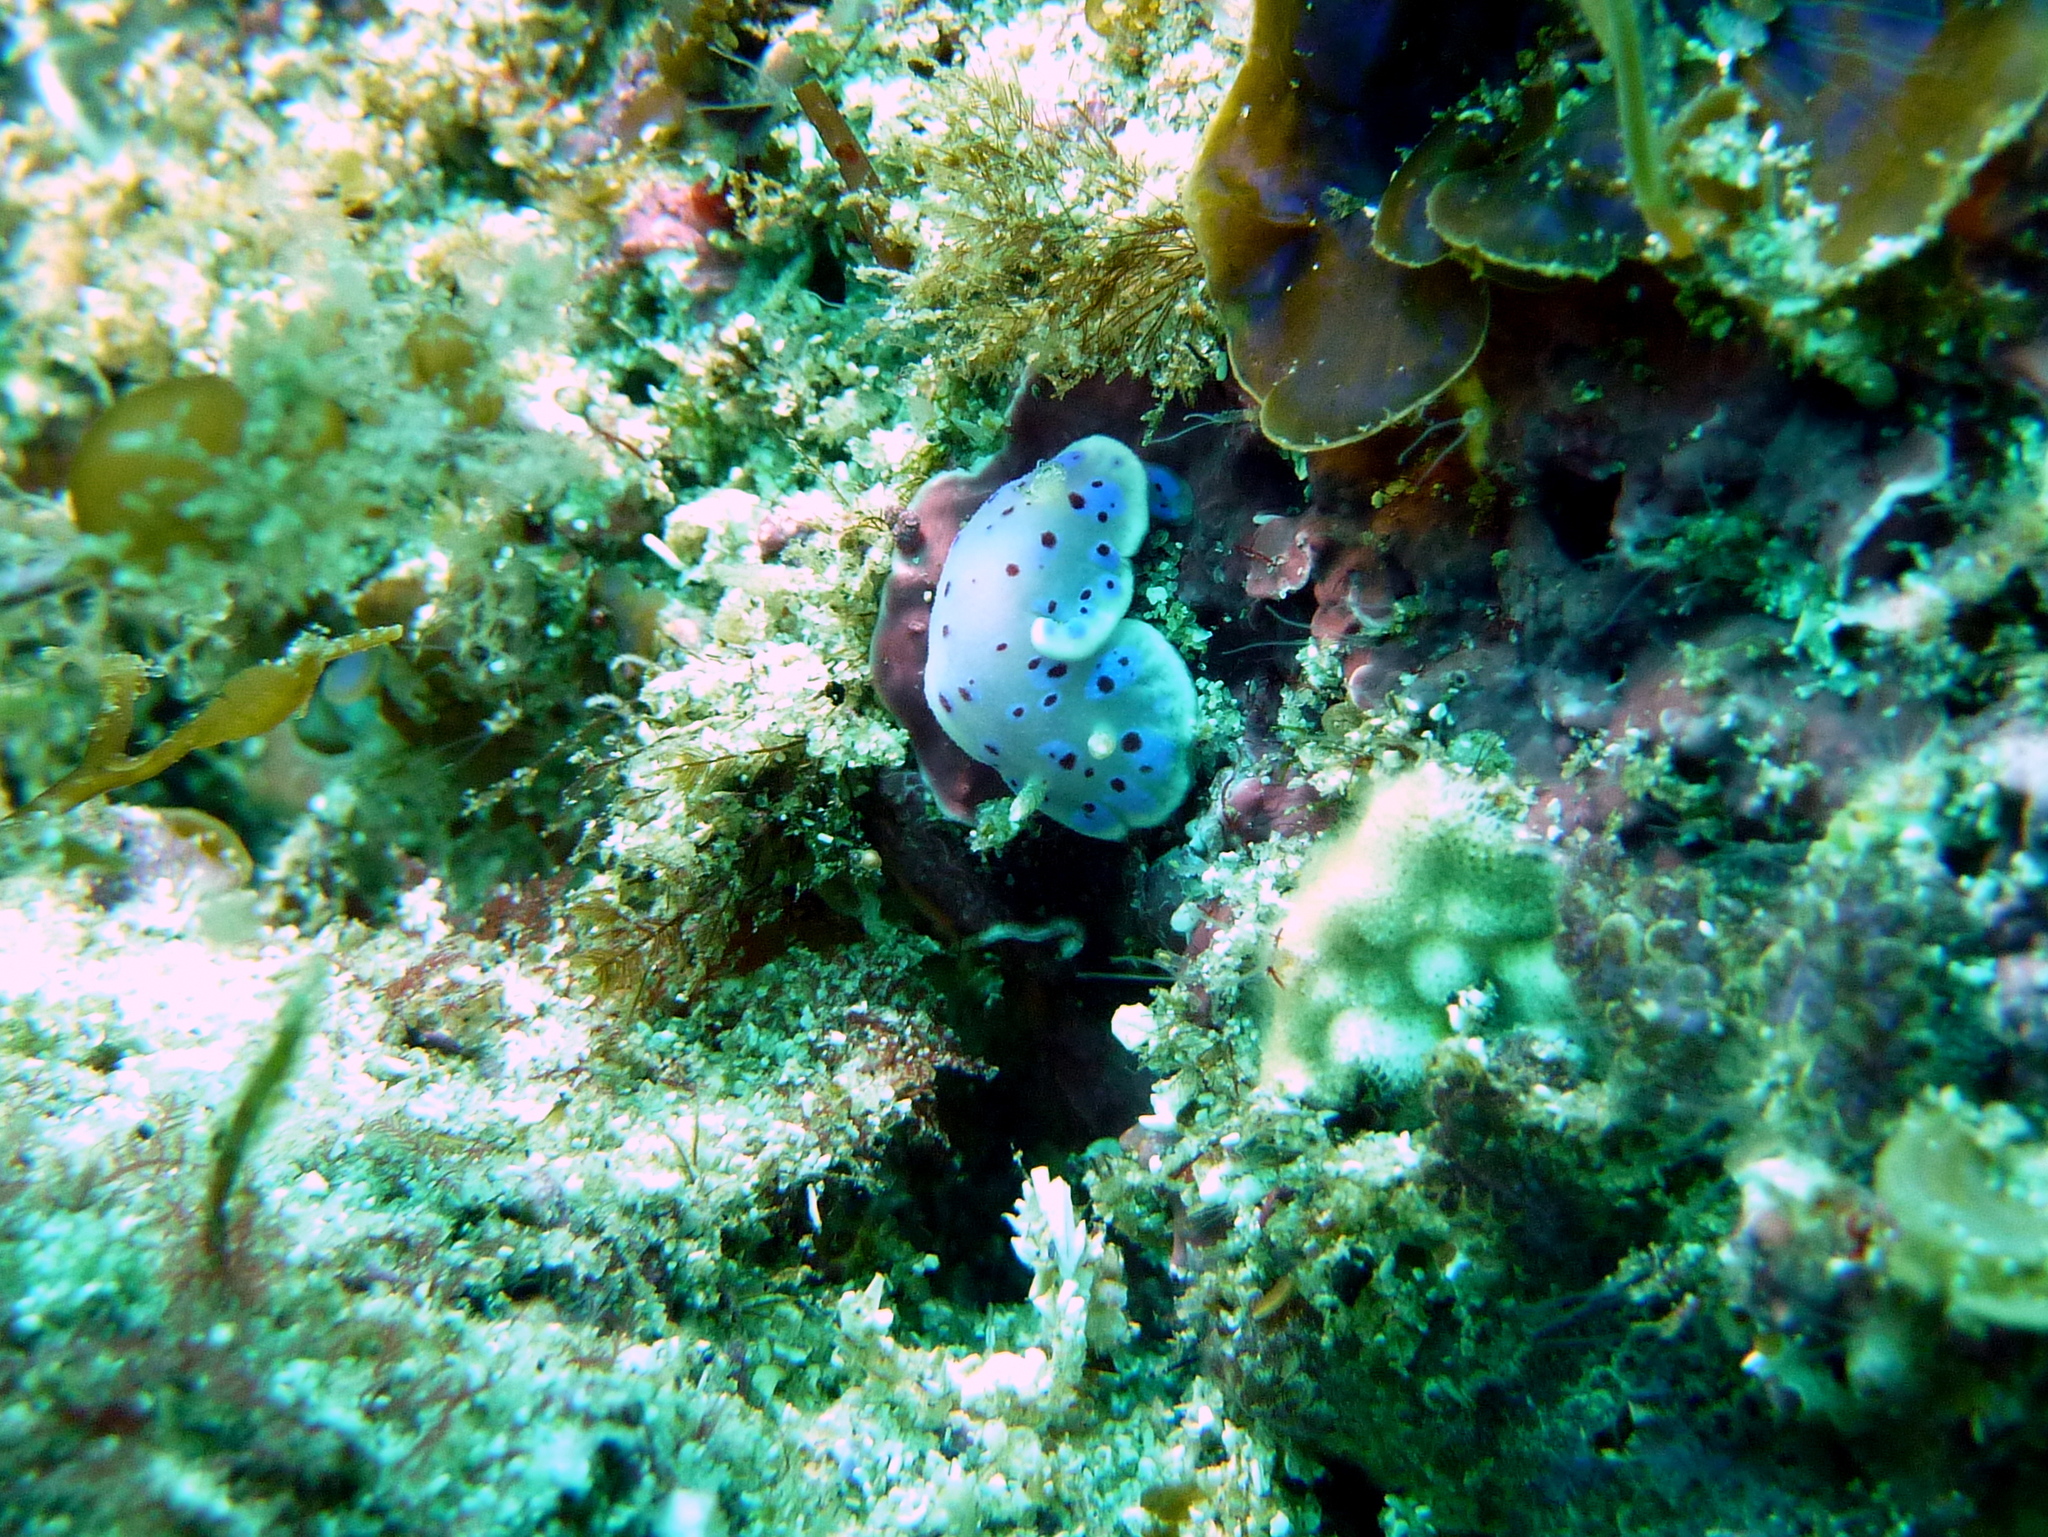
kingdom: Animalia
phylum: Mollusca
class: Gastropoda
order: Nudibranchia
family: Chromodorididae
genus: Goniobranchus
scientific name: Goniobranchus thompsoni
